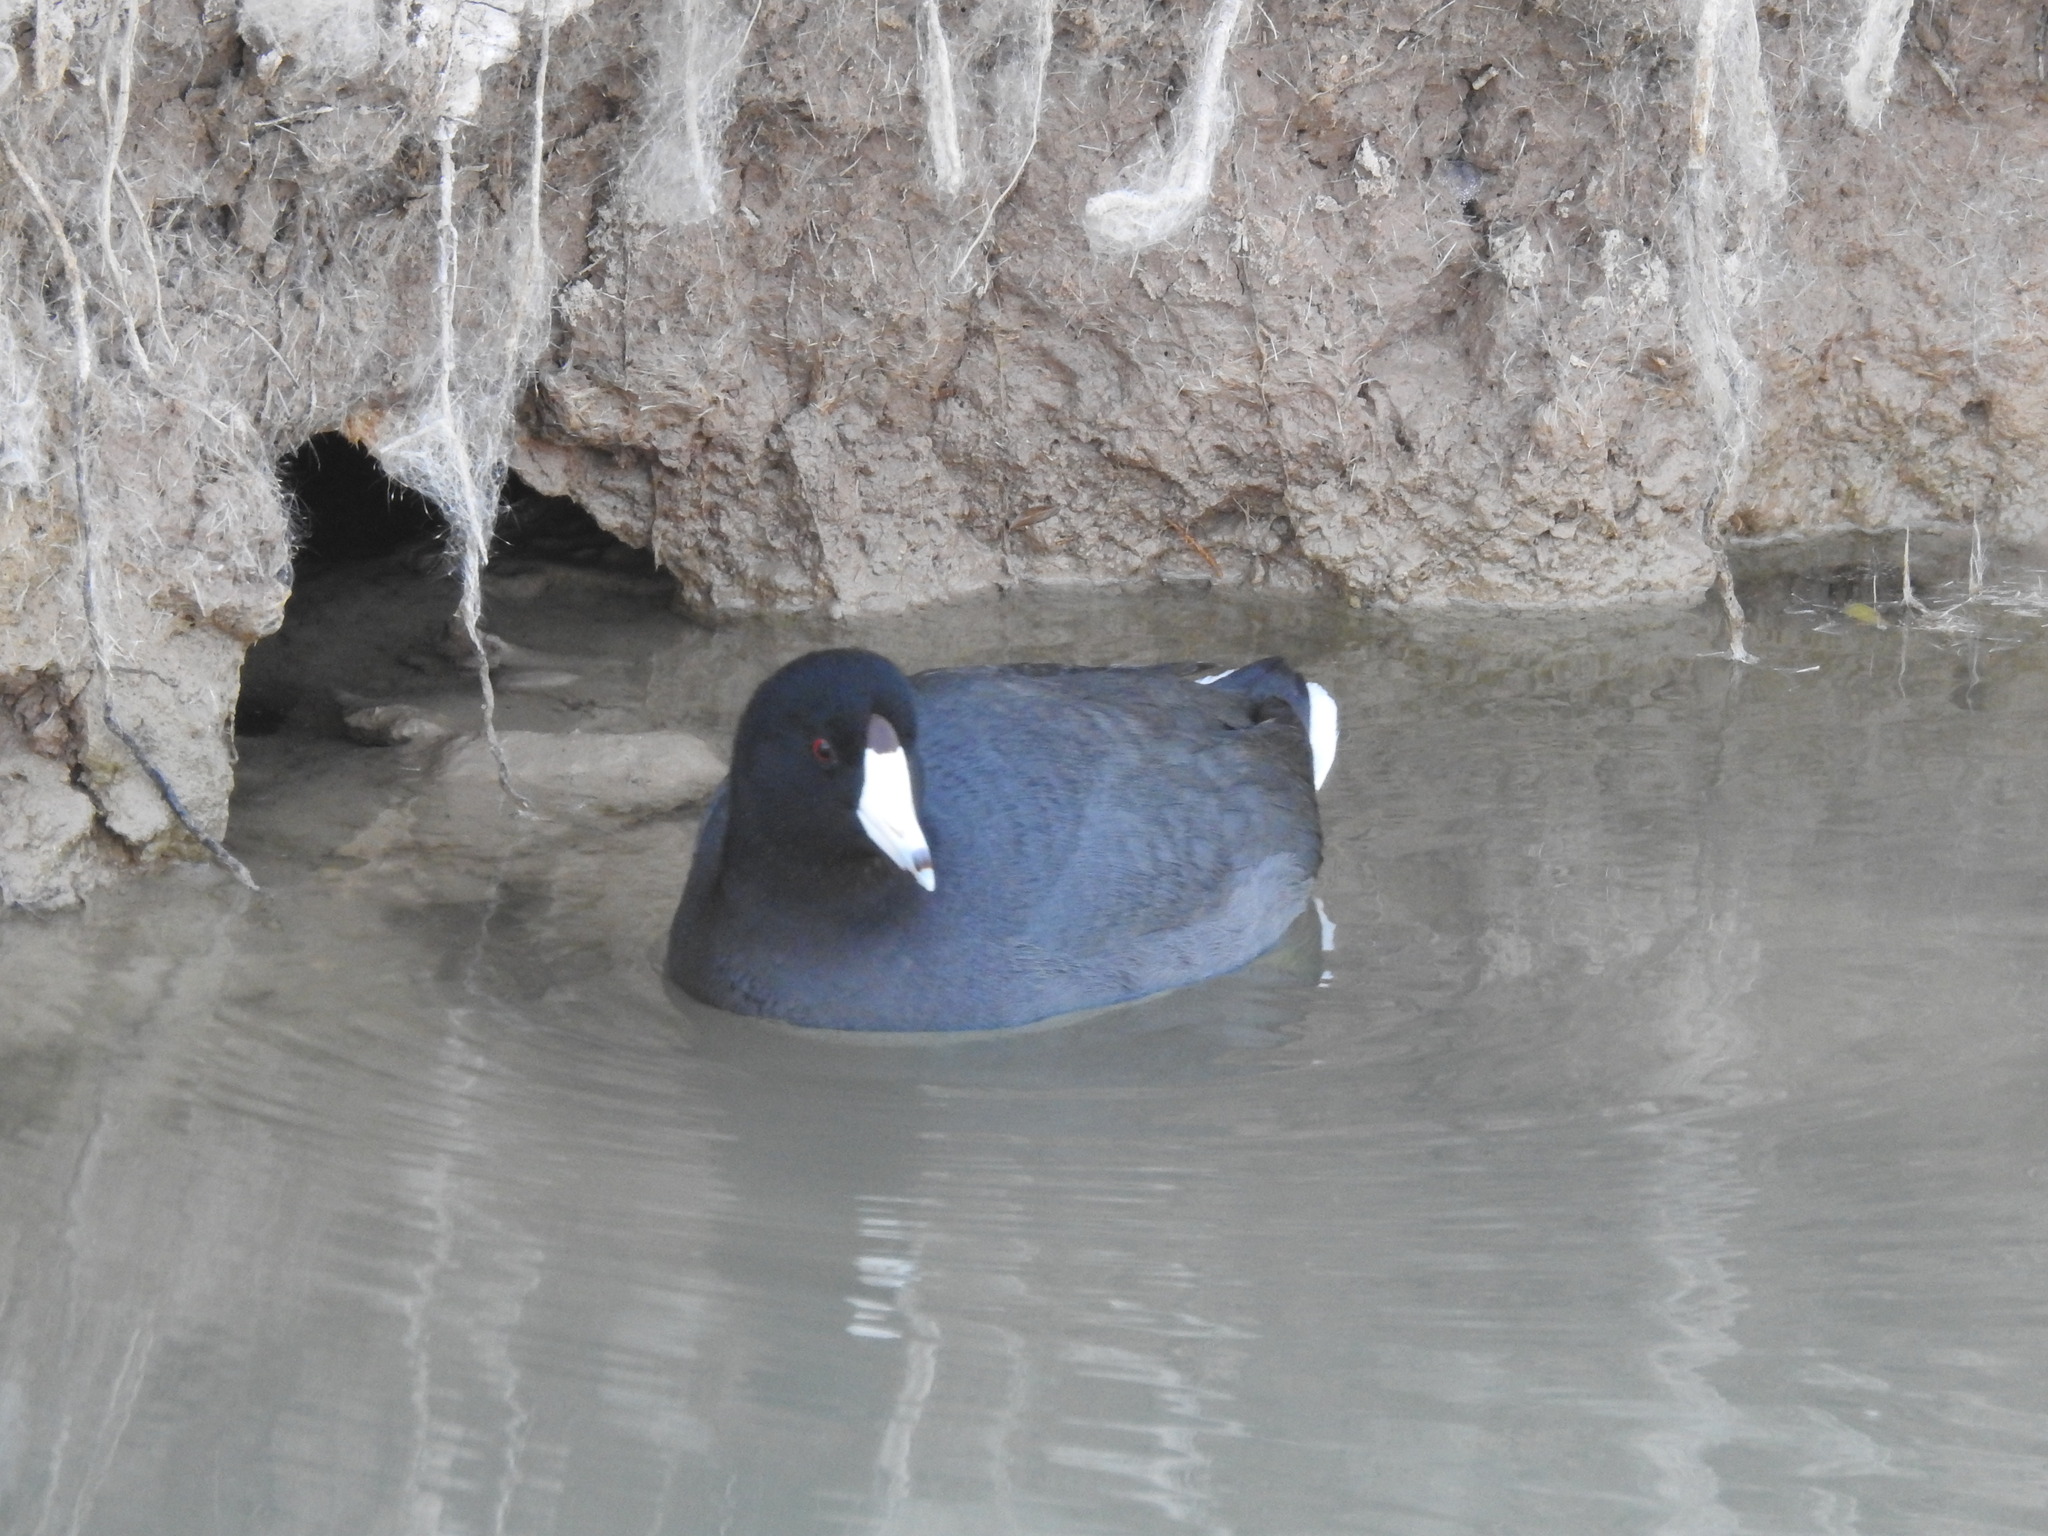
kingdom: Animalia
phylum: Chordata
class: Aves
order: Gruiformes
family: Rallidae
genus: Fulica
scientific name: Fulica americana
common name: American coot
